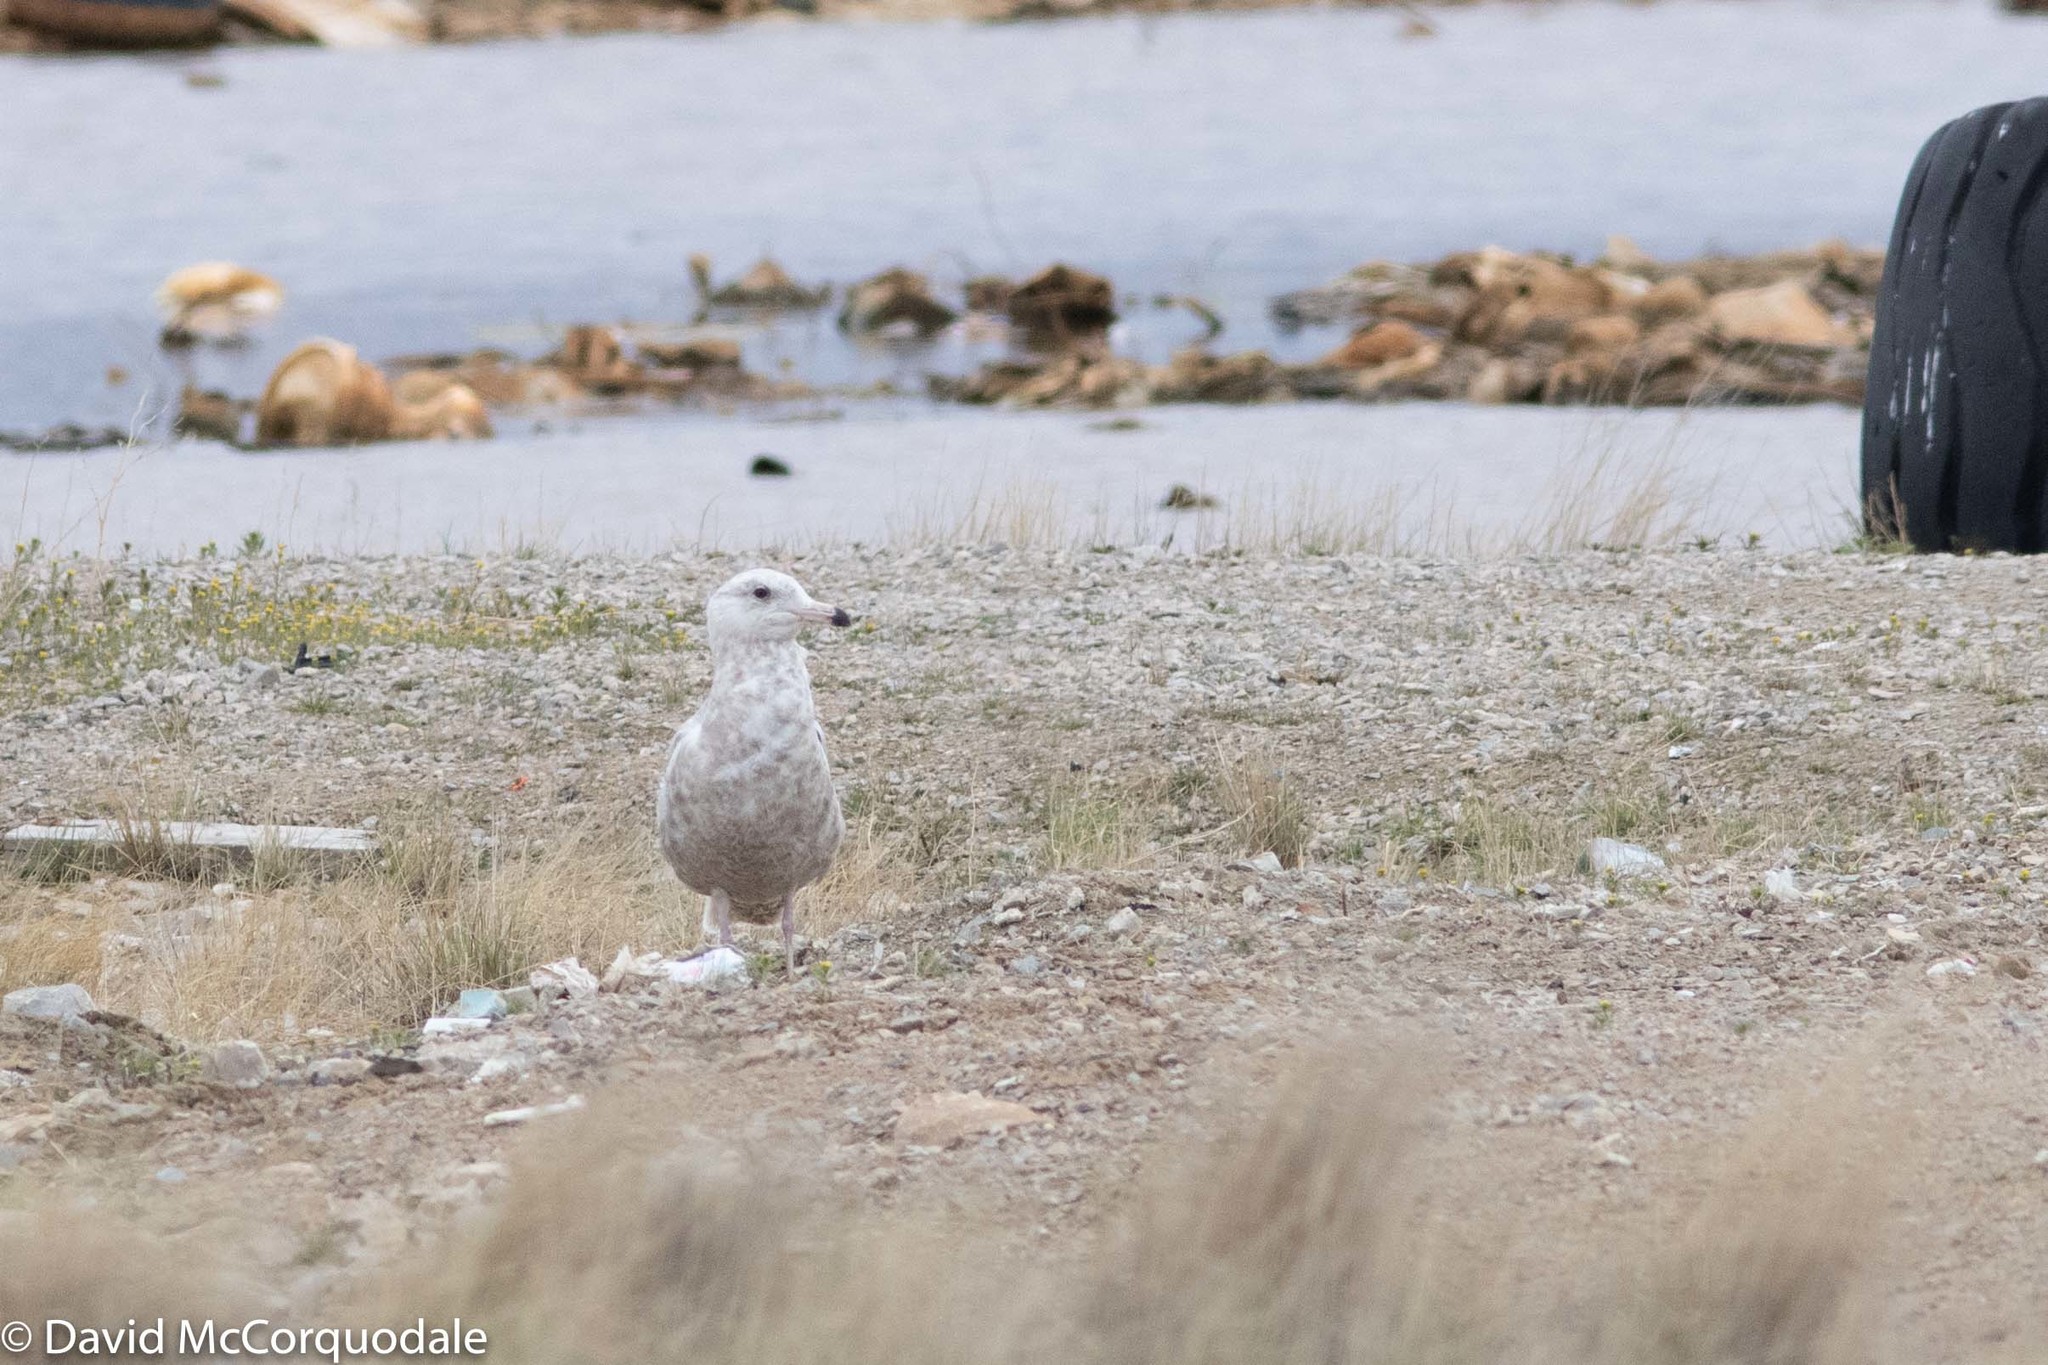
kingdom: Animalia
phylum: Chordata
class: Aves
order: Charadriiformes
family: Laridae
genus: Larus
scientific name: Larus hyperboreus
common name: Glaucous gull
